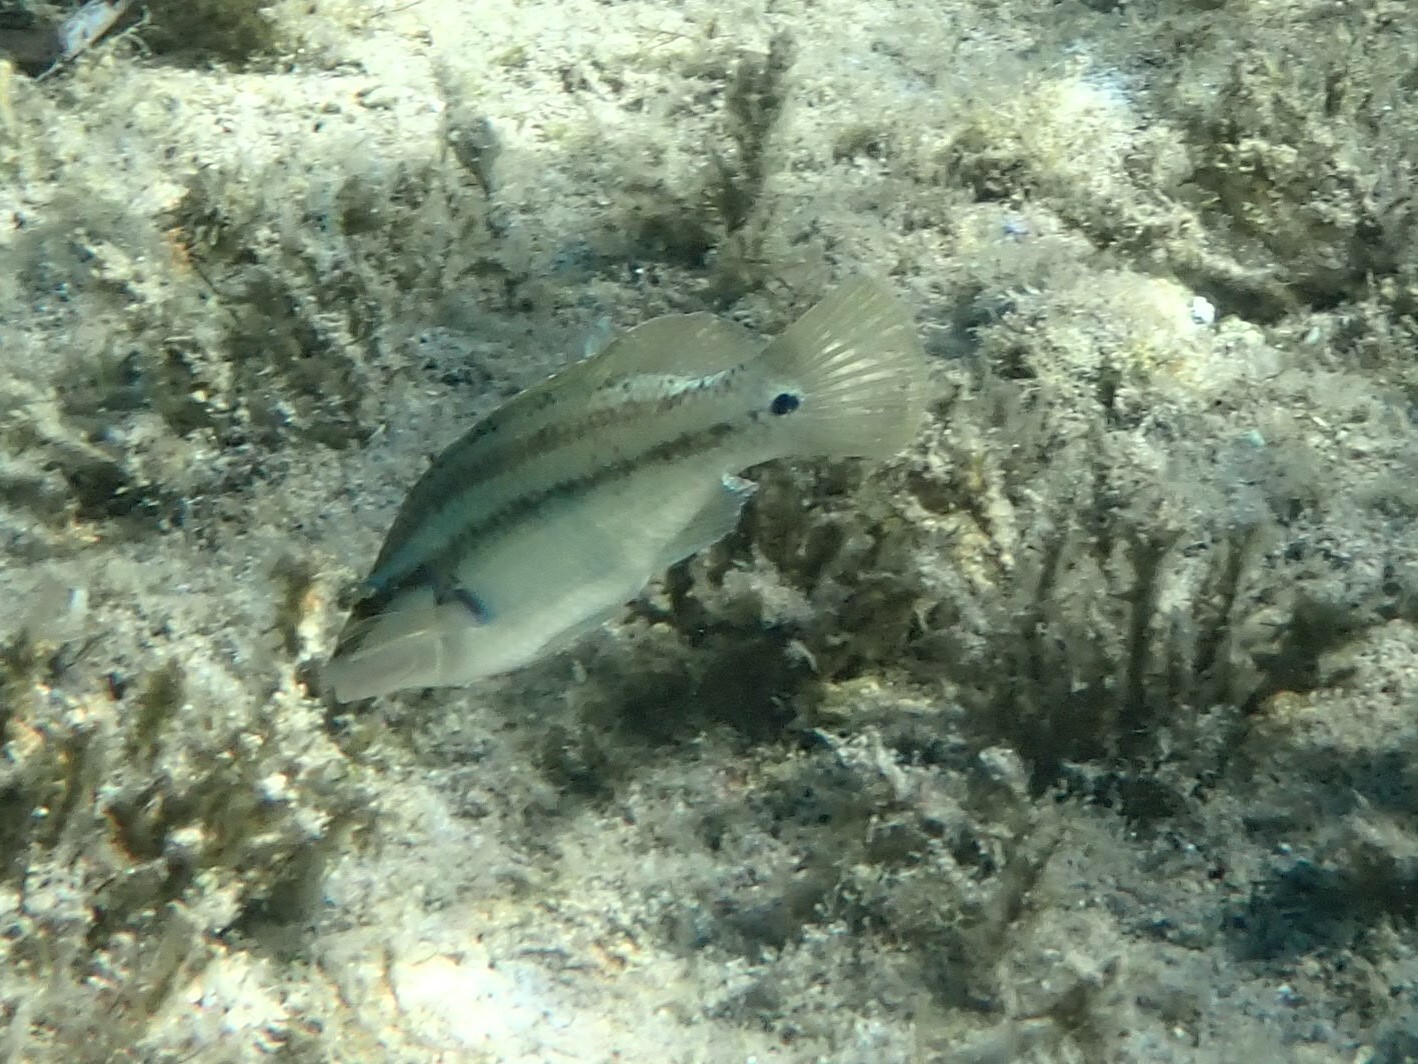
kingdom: Animalia
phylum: Chordata
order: Perciformes
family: Labridae
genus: Symphodus
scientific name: Symphodus tinca
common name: Peacock wrasse
